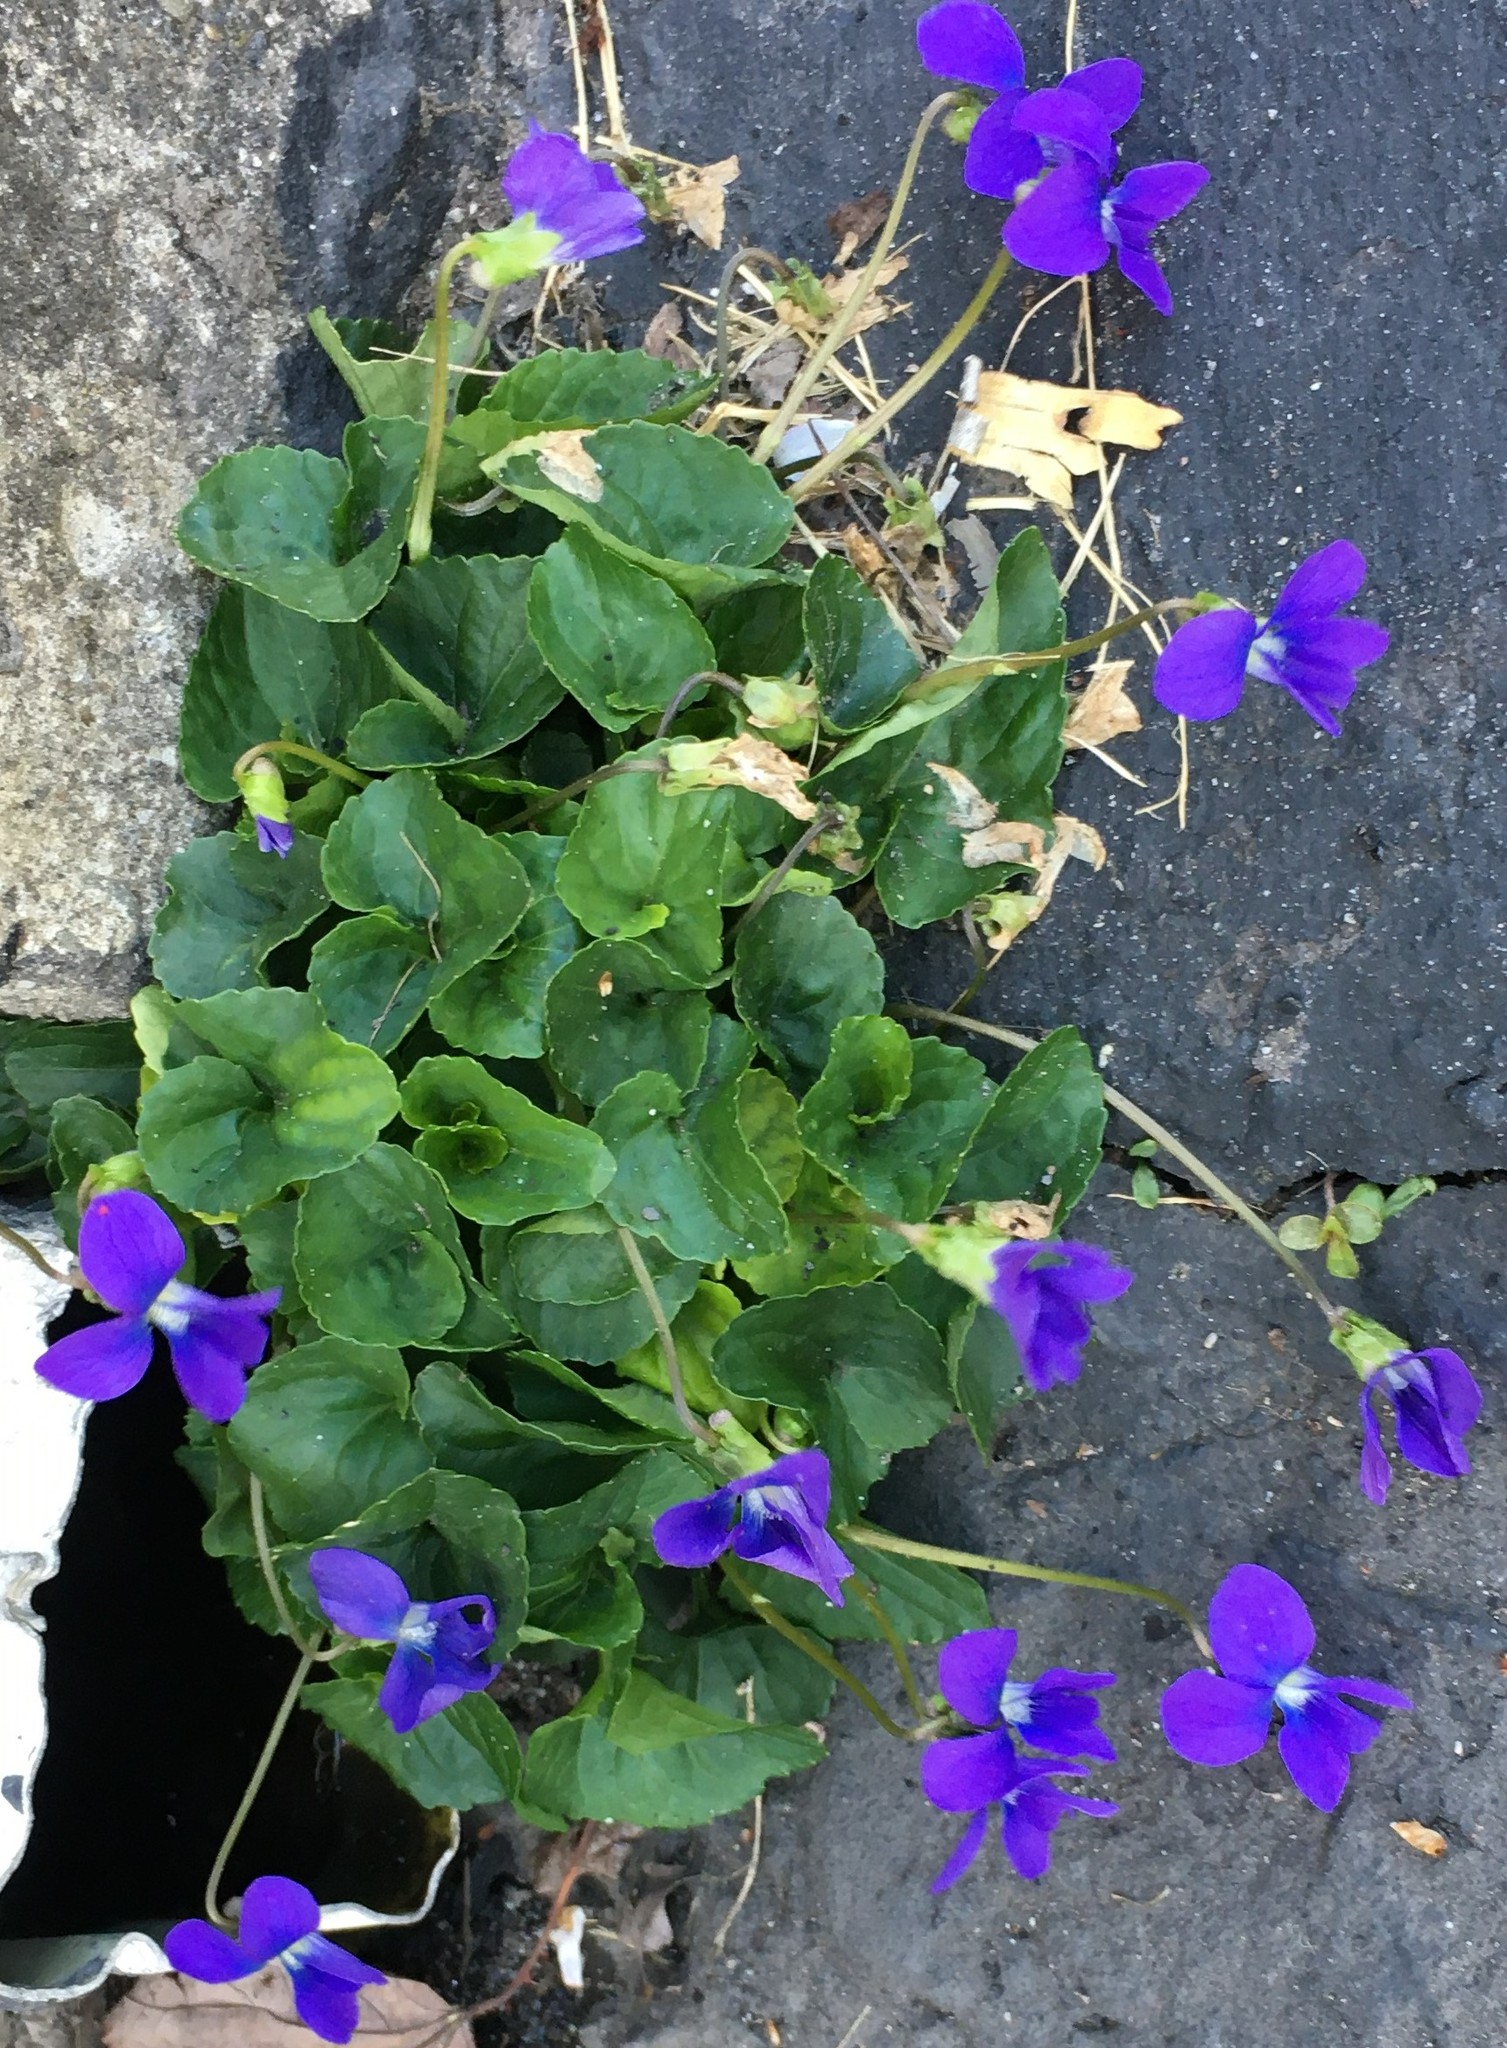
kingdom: Plantae
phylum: Tracheophyta
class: Magnoliopsida
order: Malpighiales
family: Violaceae
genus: Viola
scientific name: Viola sororia
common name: Dooryard violet
